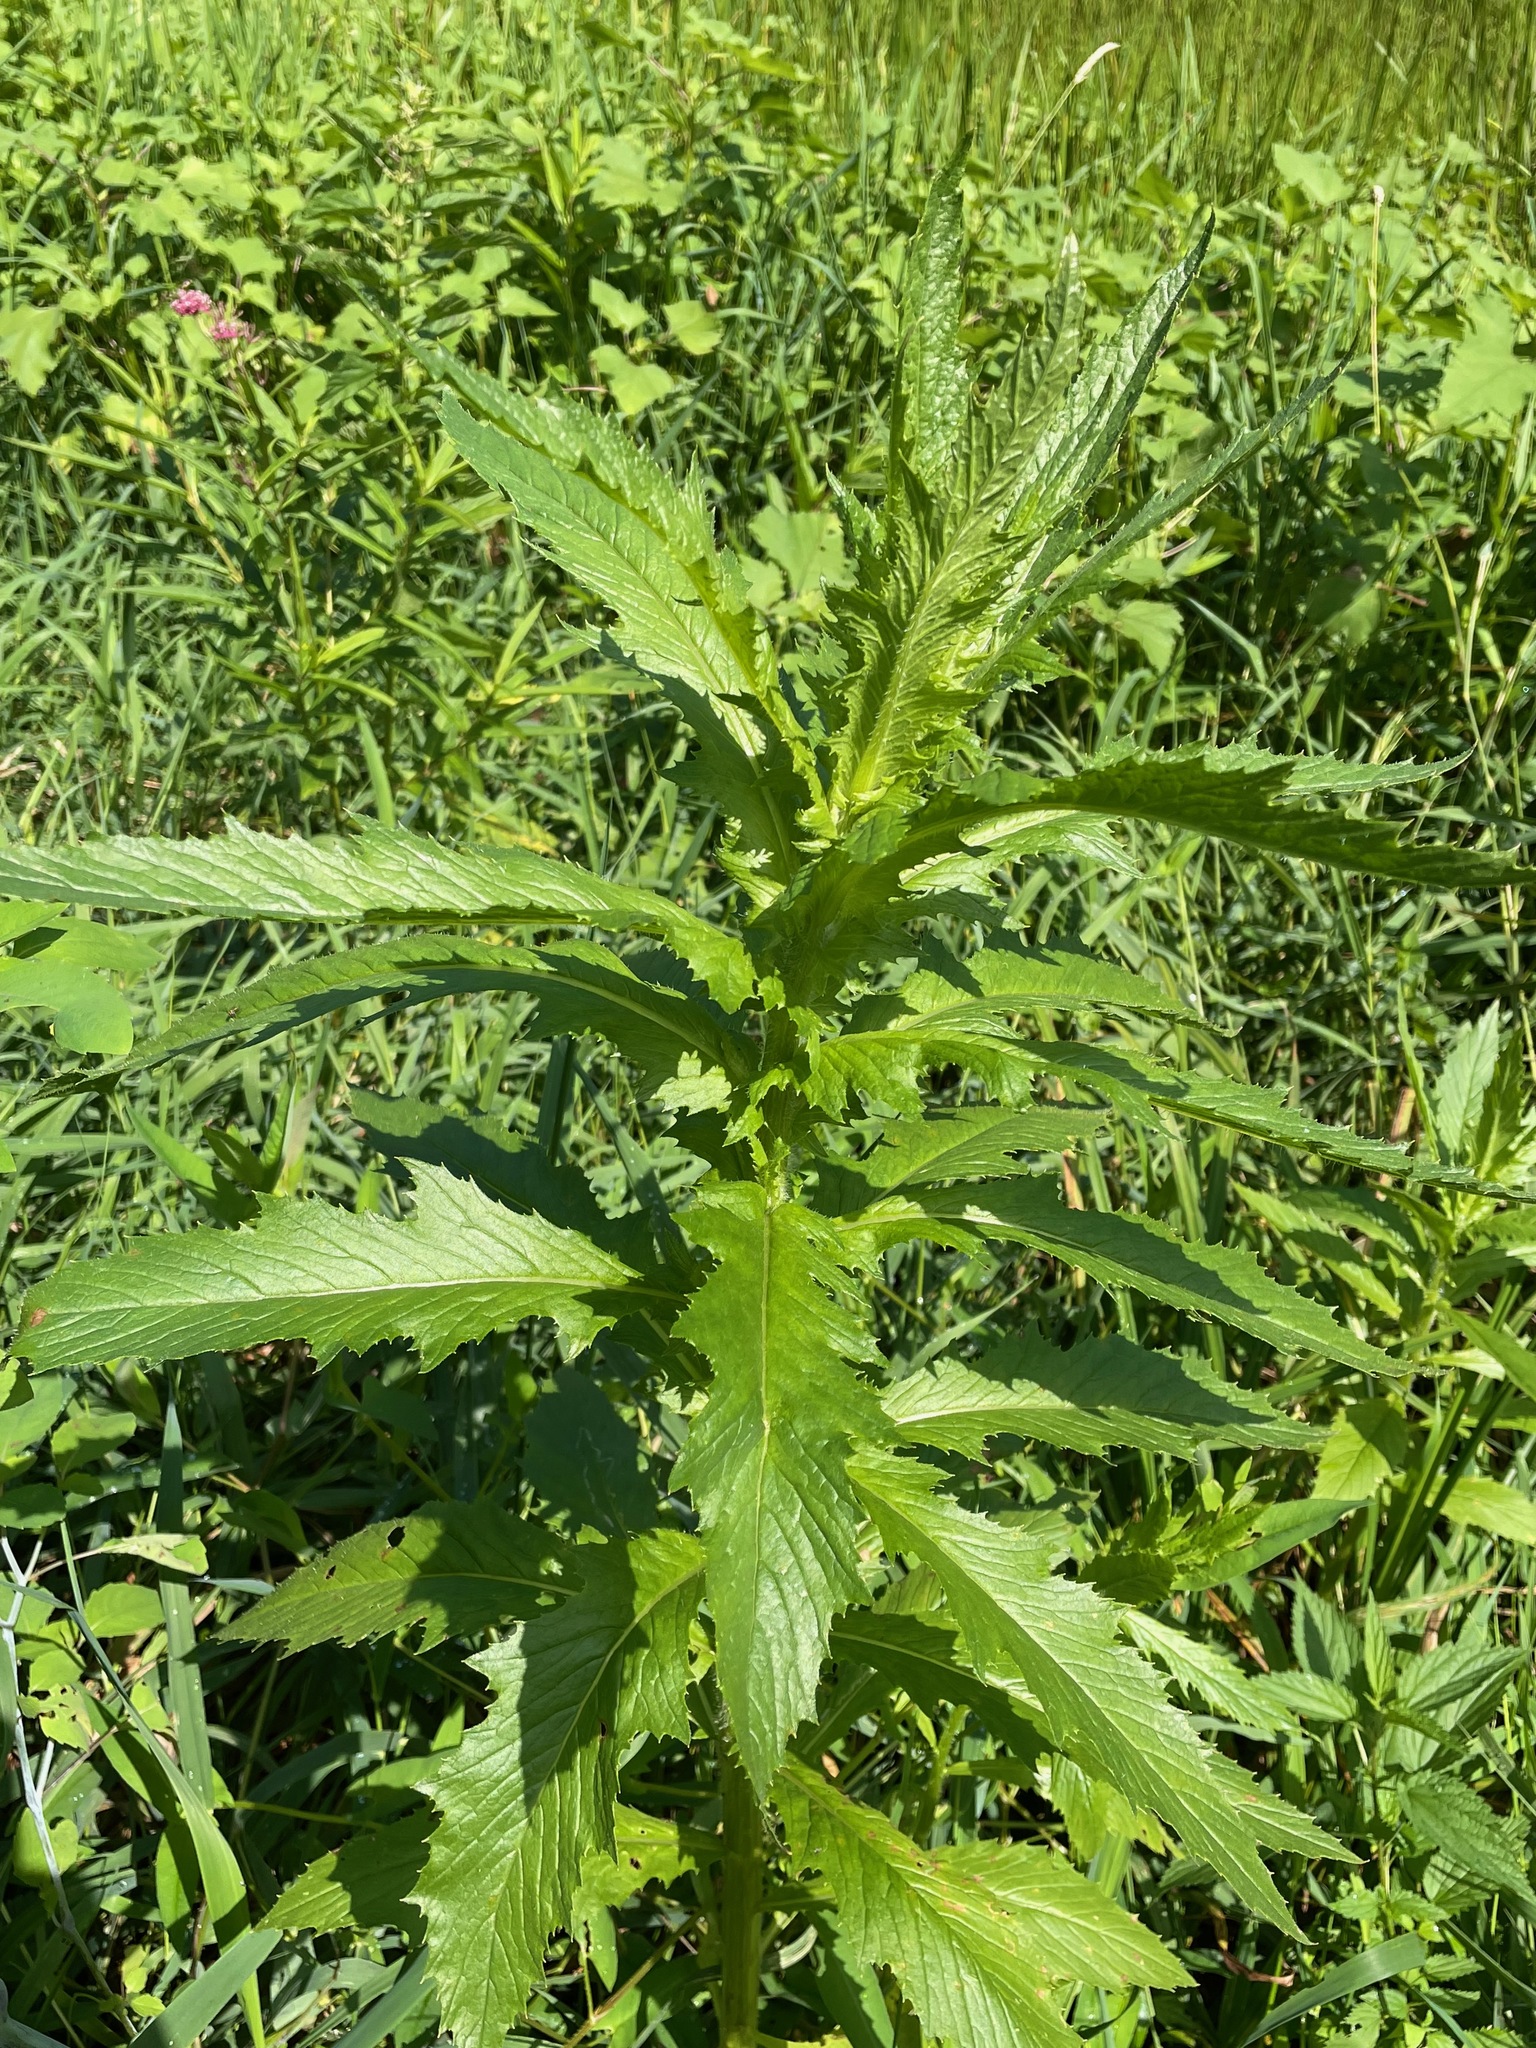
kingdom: Plantae
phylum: Tracheophyta
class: Magnoliopsida
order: Asterales
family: Asteraceae
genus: Erechtites
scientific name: Erechtites hieraciifolius
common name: American burnweed
